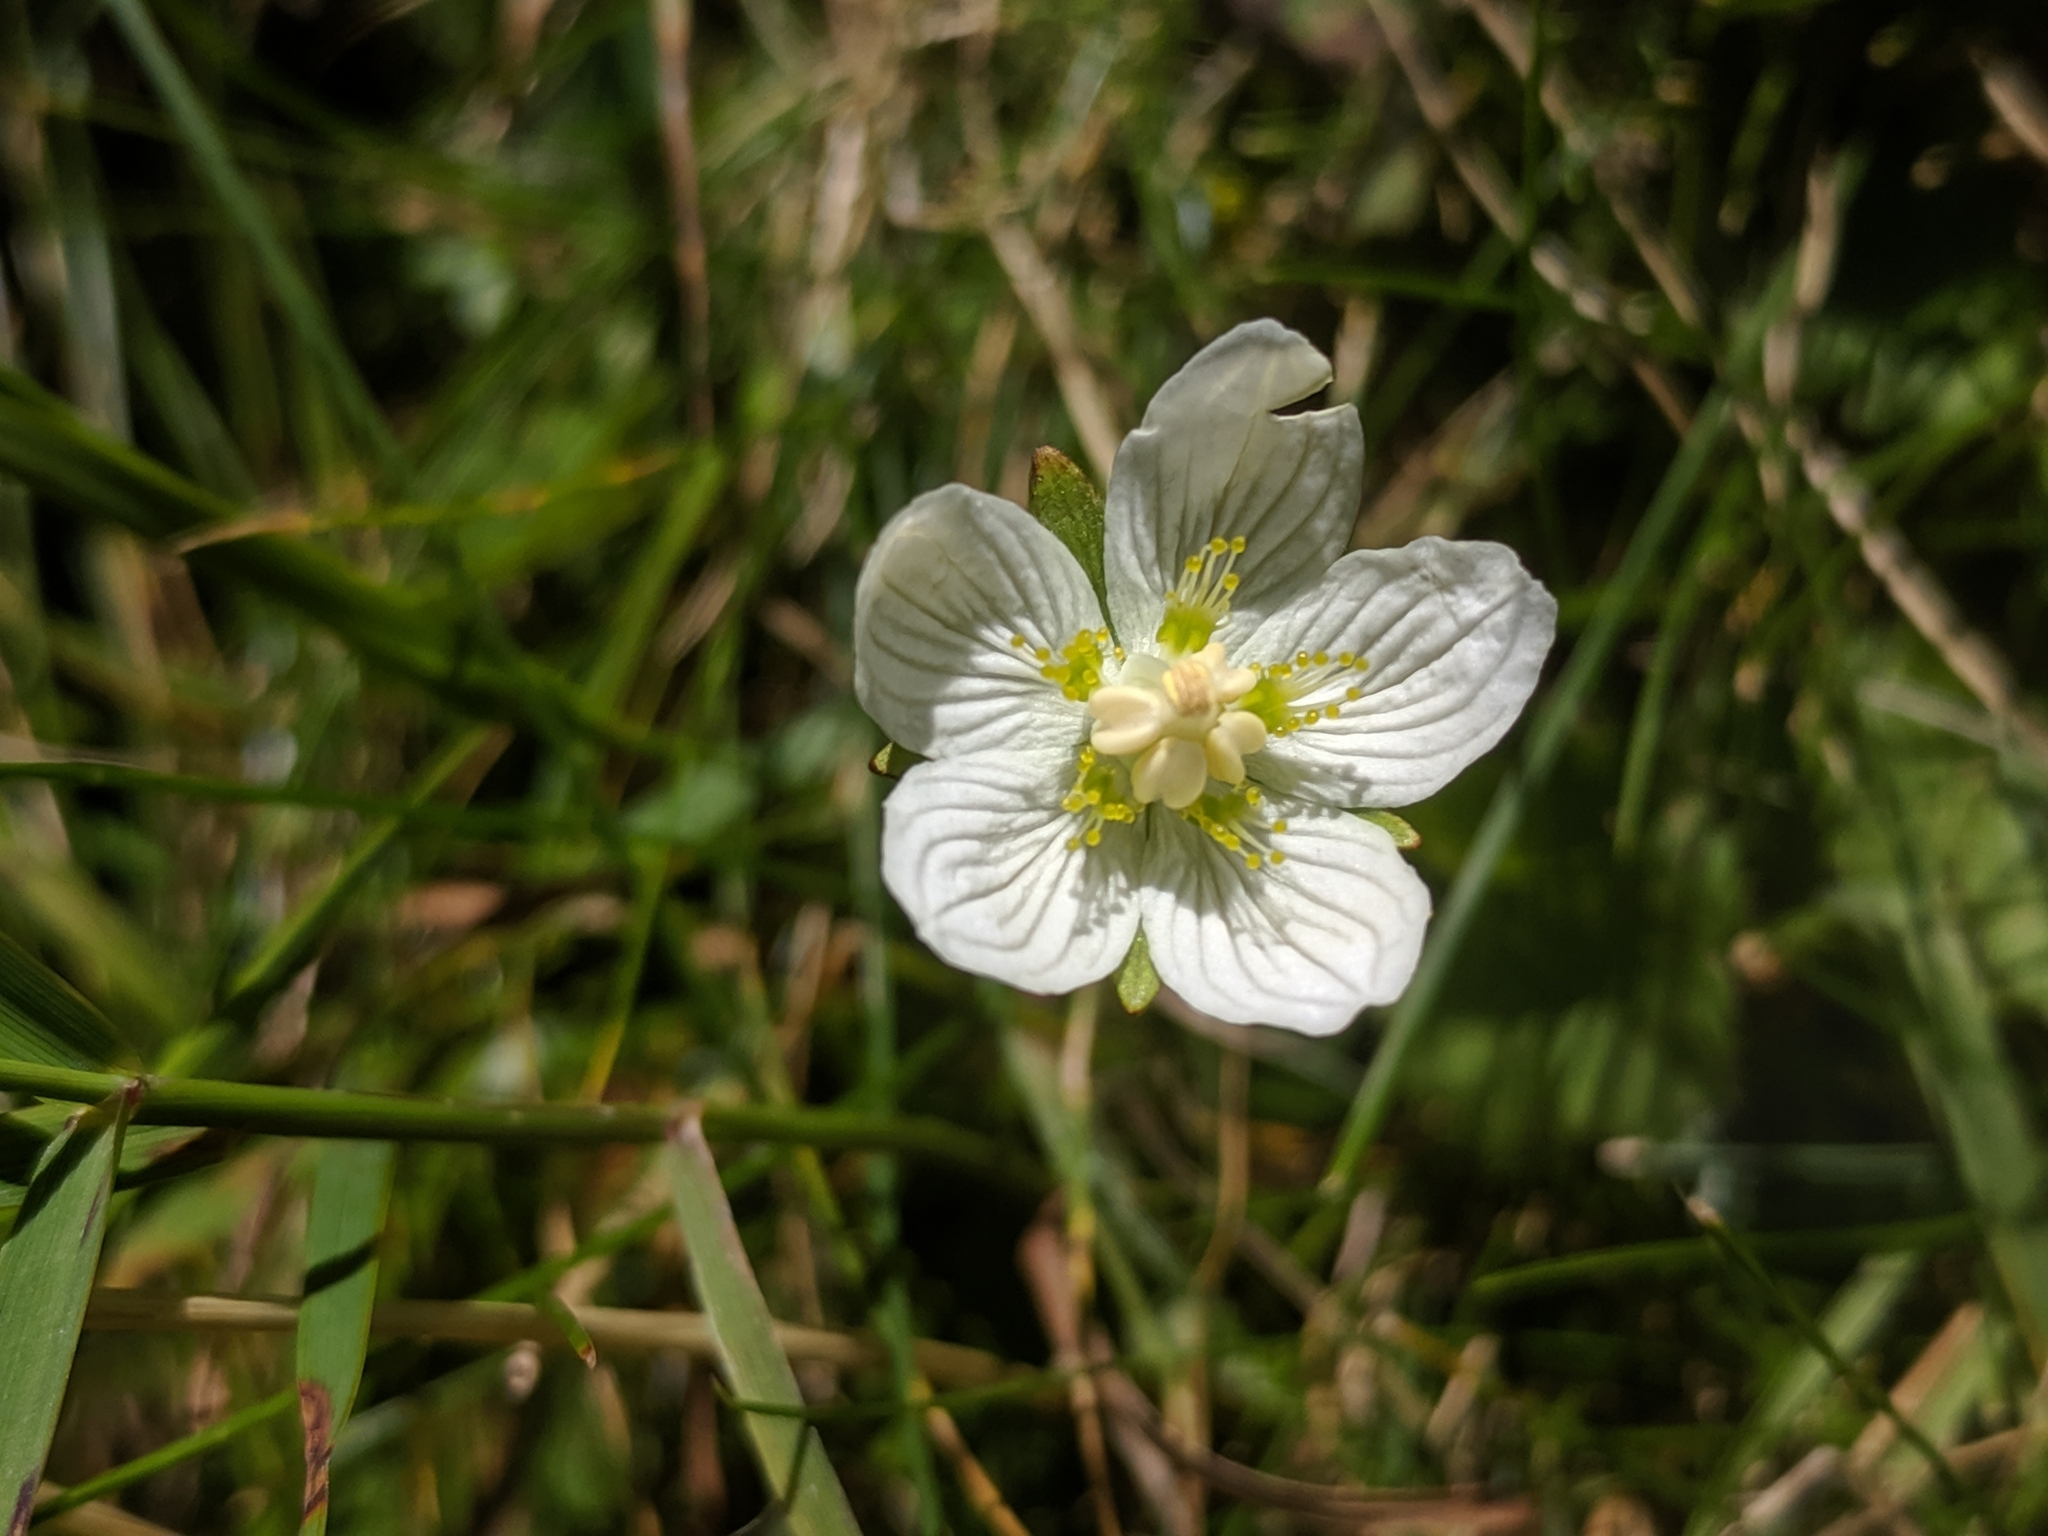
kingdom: Plantae
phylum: Tracheophyta
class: Magnoliopsida
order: Celastrales
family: Parnassiaceae
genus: Parnassia
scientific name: Parnassia palustris
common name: Grass-of-parnassus
